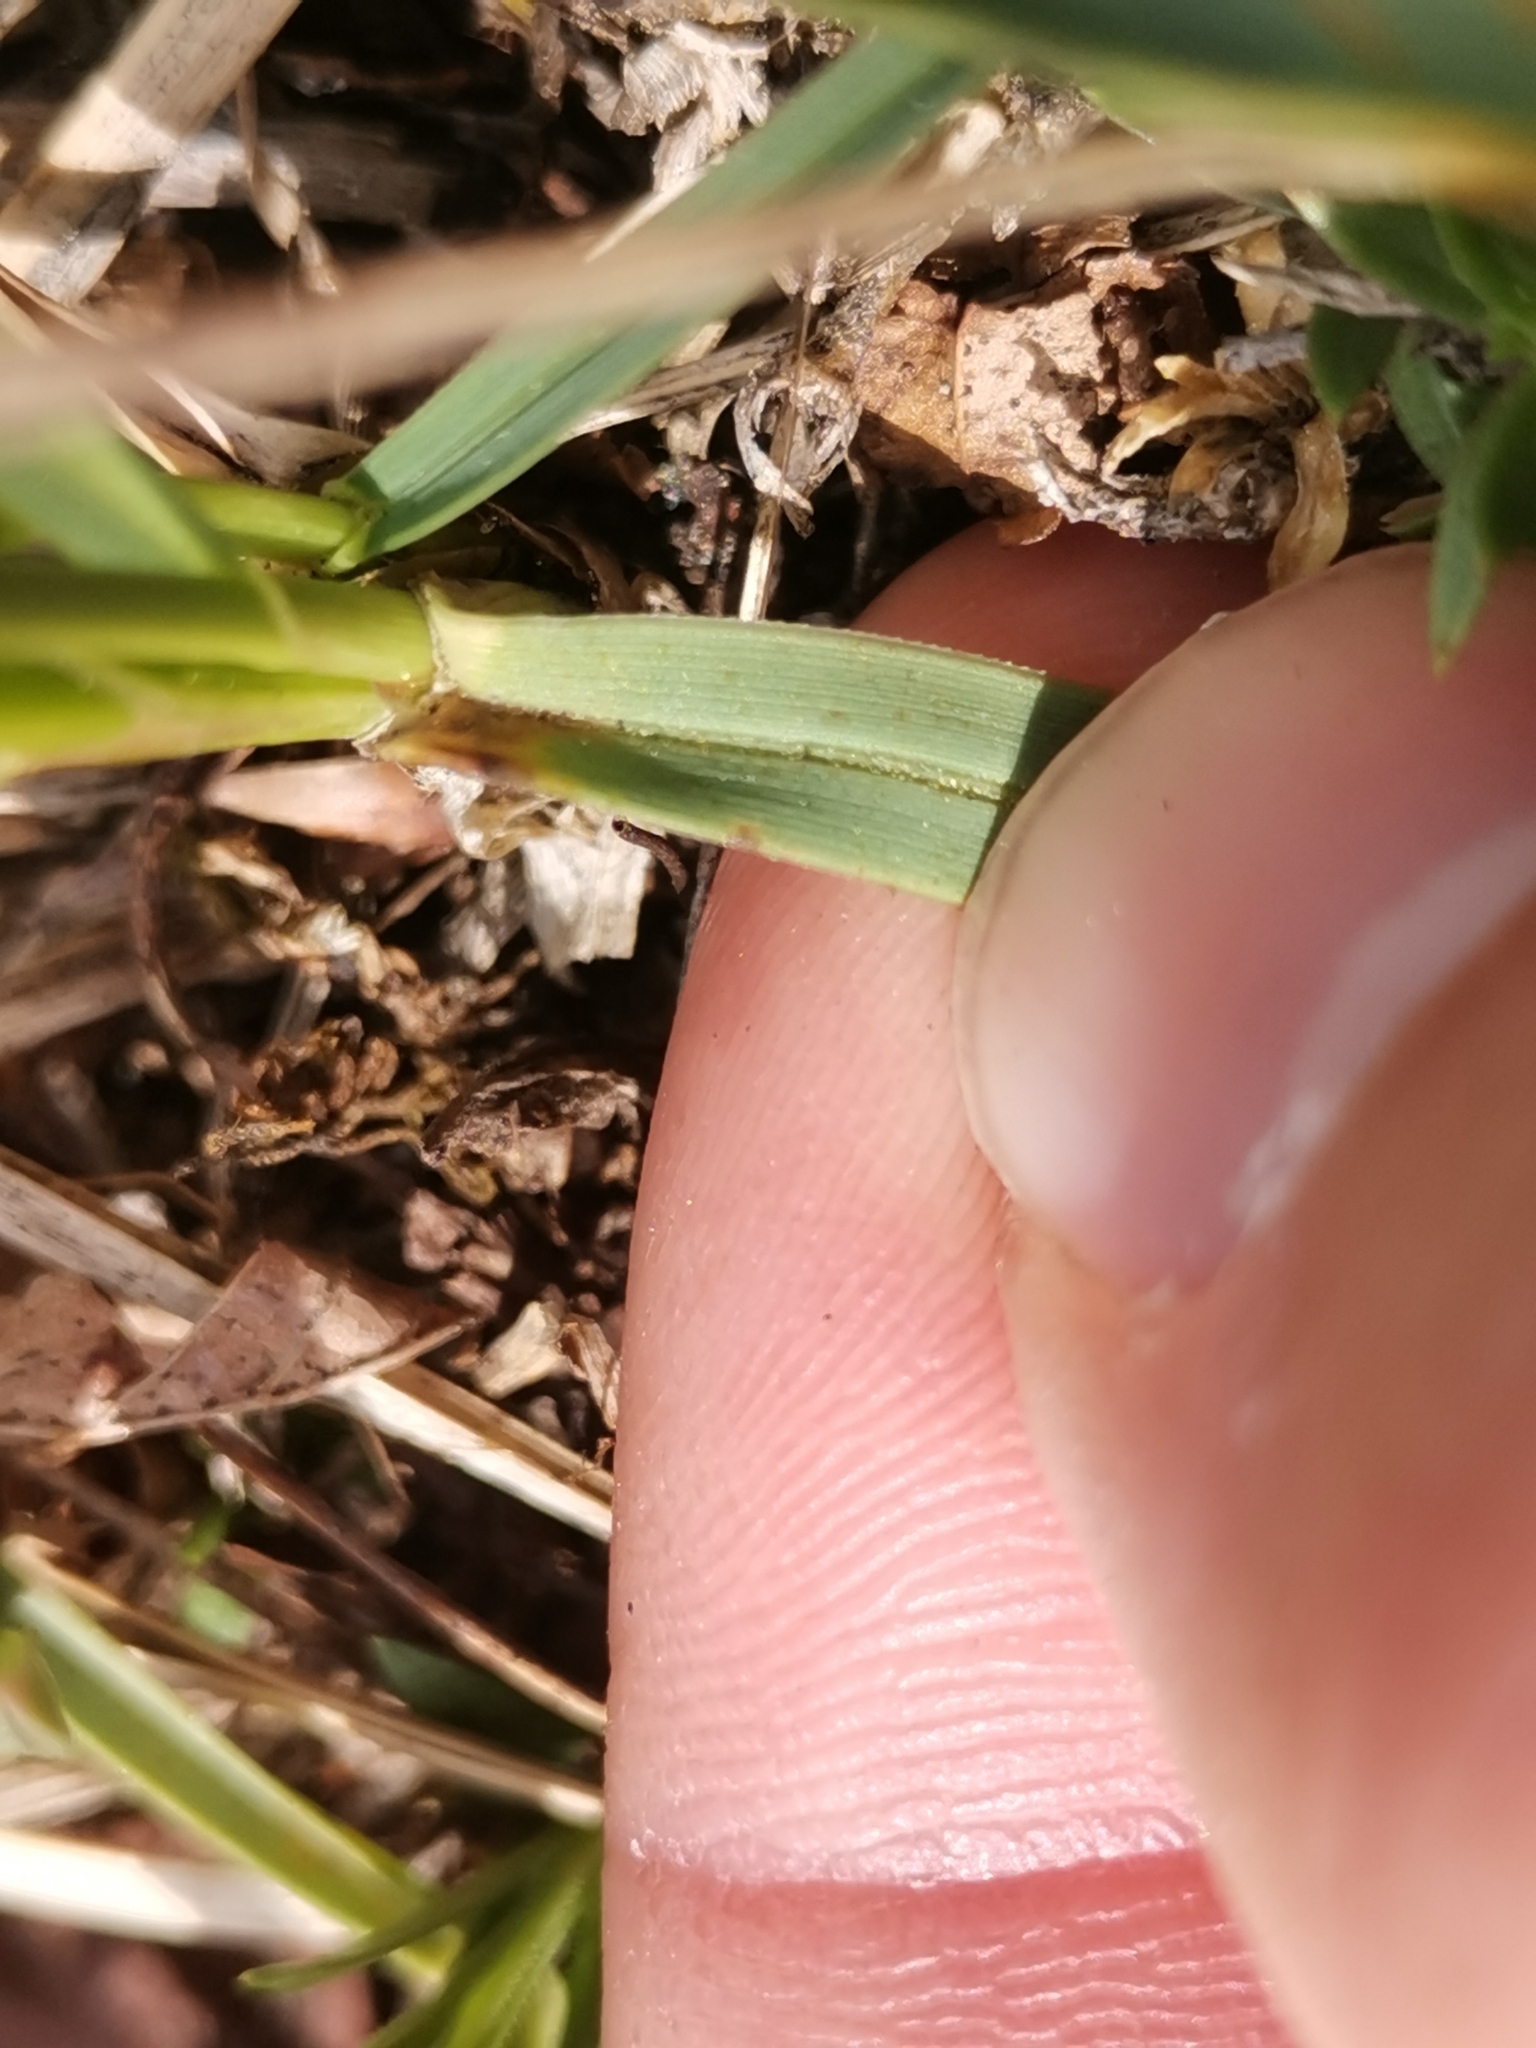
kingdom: Plantae
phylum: Tracheophyta
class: Liliopsida
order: Poales
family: Poaceae
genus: Sesleria
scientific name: Sesleria caerulea
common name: Blue moor-grass
